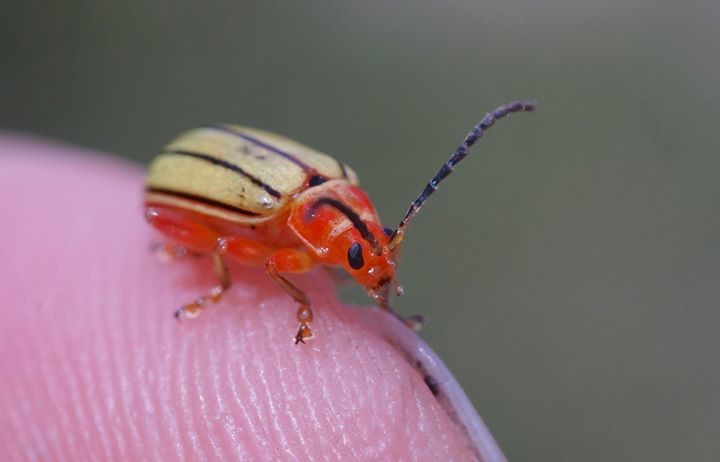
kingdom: Animalia
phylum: Arthropoda
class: Insecta
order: Coleoptera
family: Chrysomelidae
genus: Disonycha
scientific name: Disonycha
